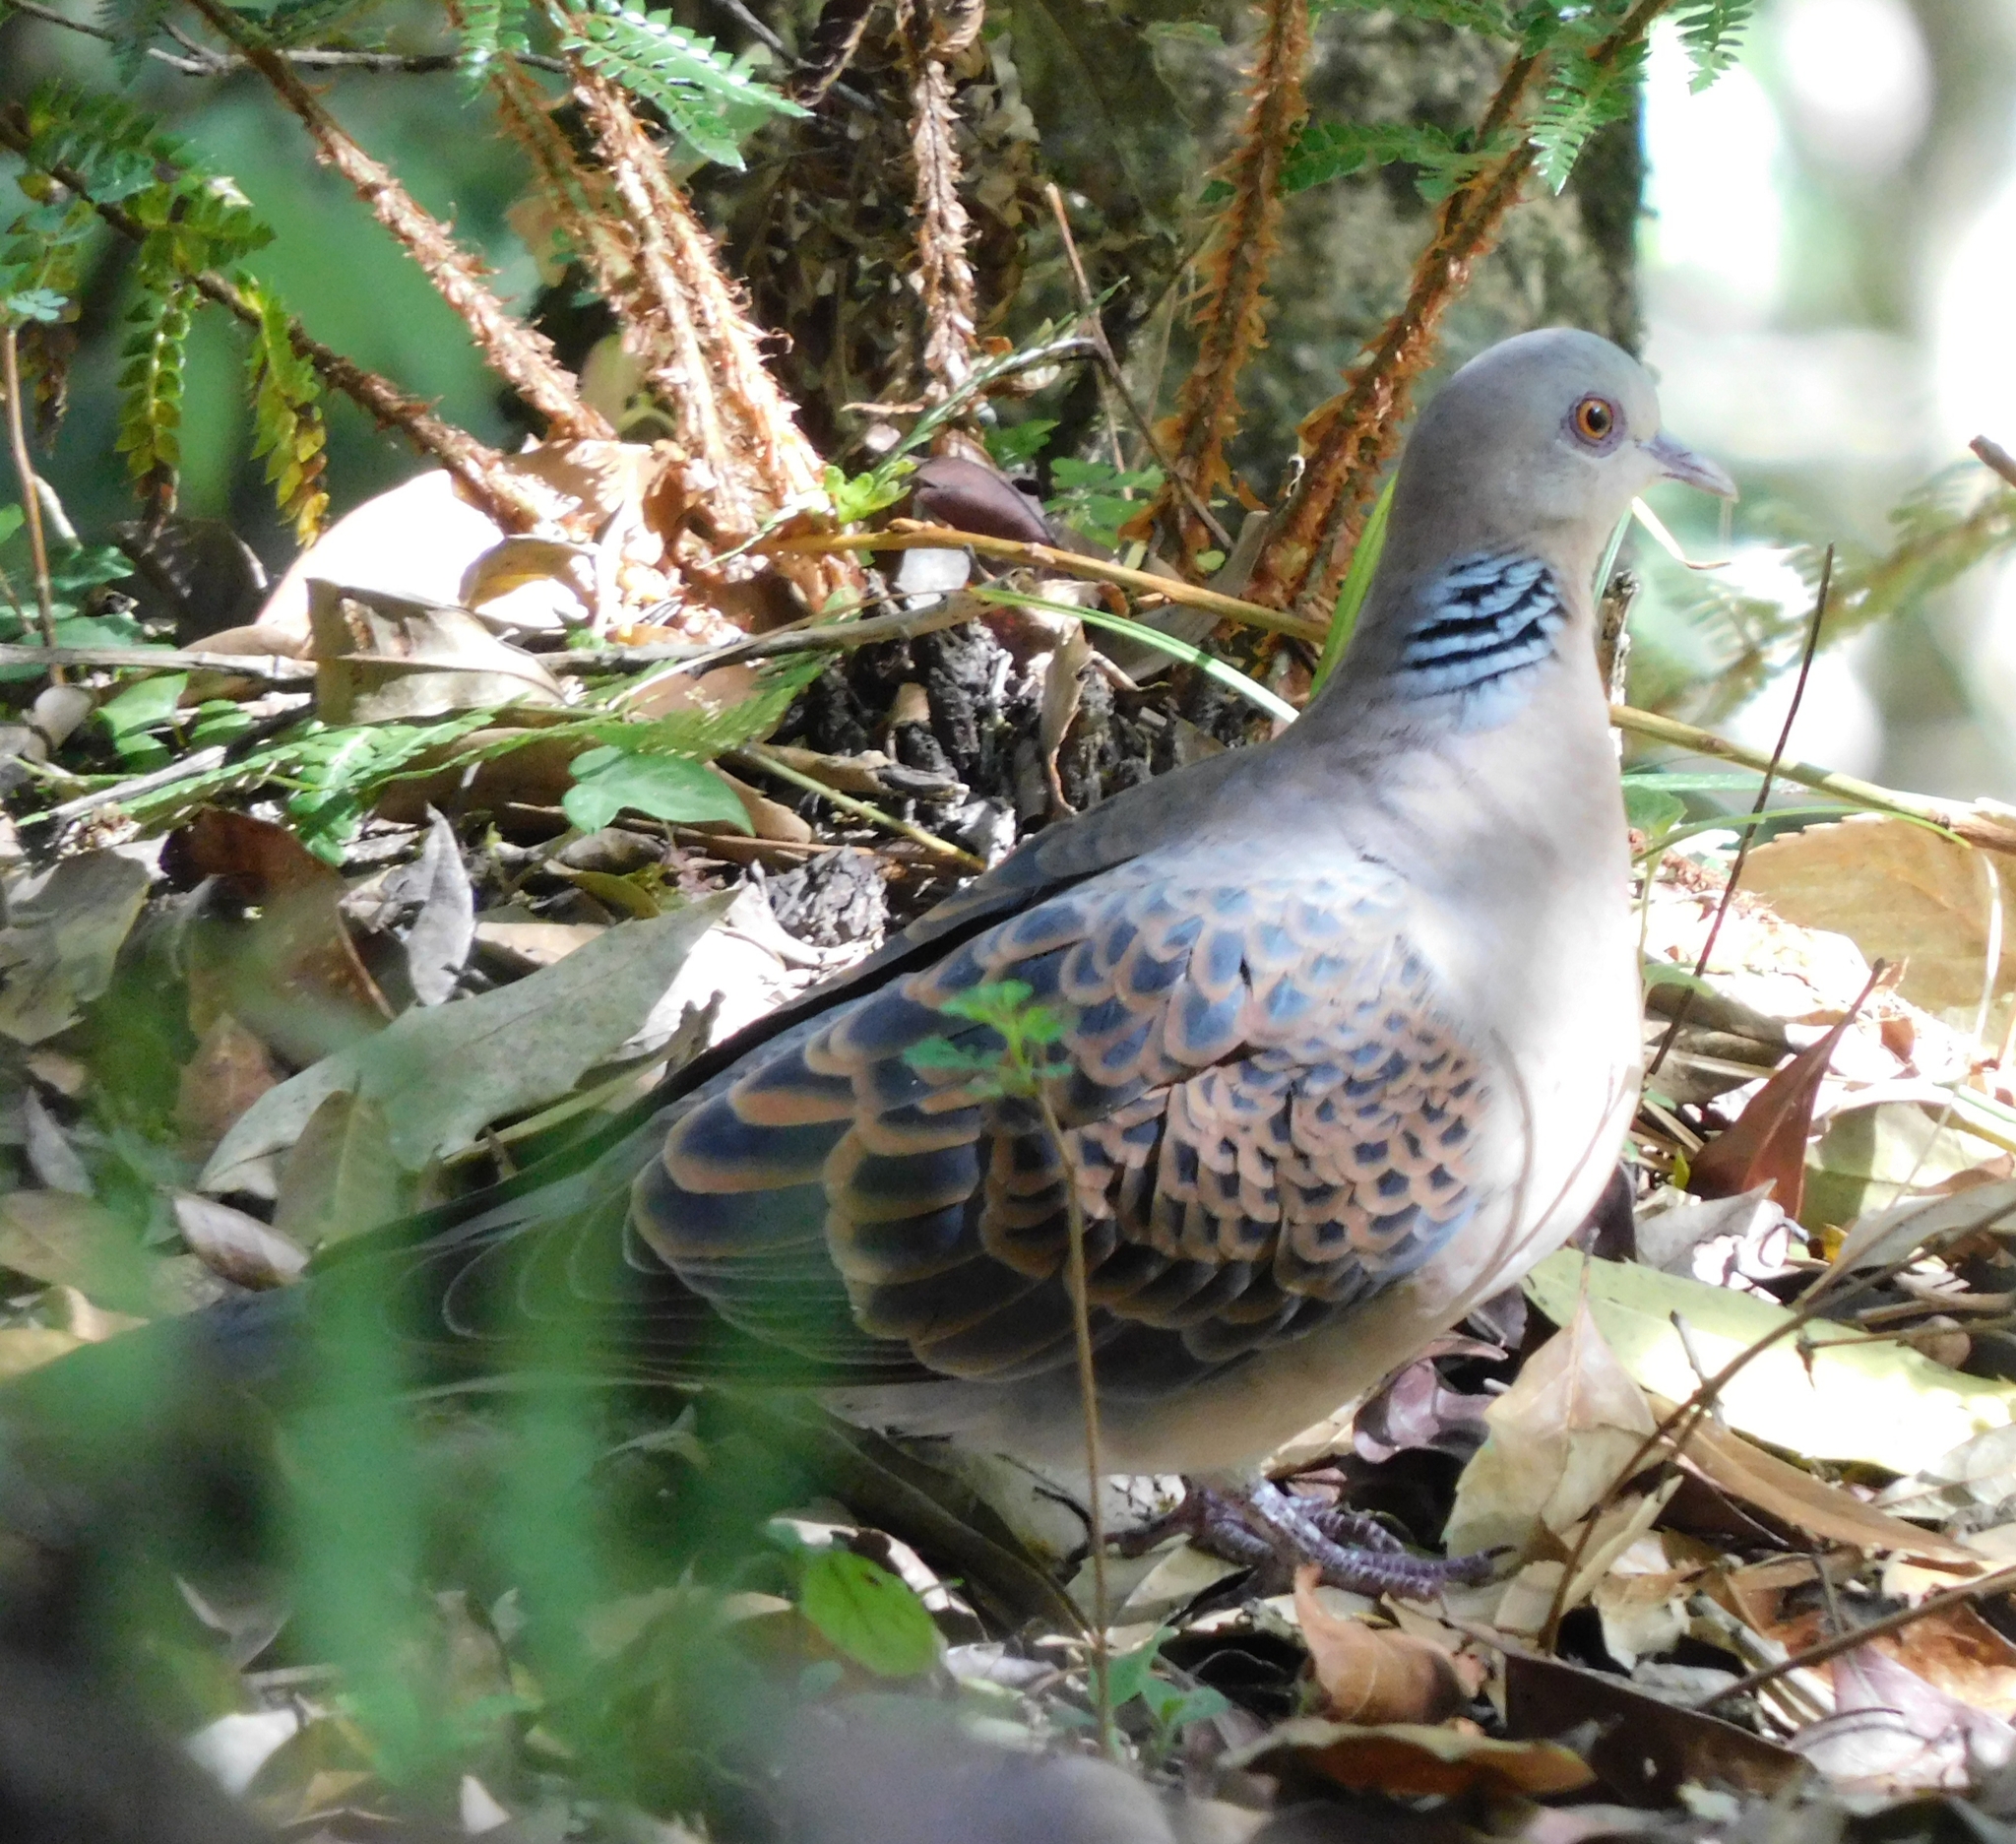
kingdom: Animalia
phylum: Chordata
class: Aves
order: Columbiformes
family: Columbidae
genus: Streptopelia
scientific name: Streptopelia orientalis
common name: Oriental turtle dove
